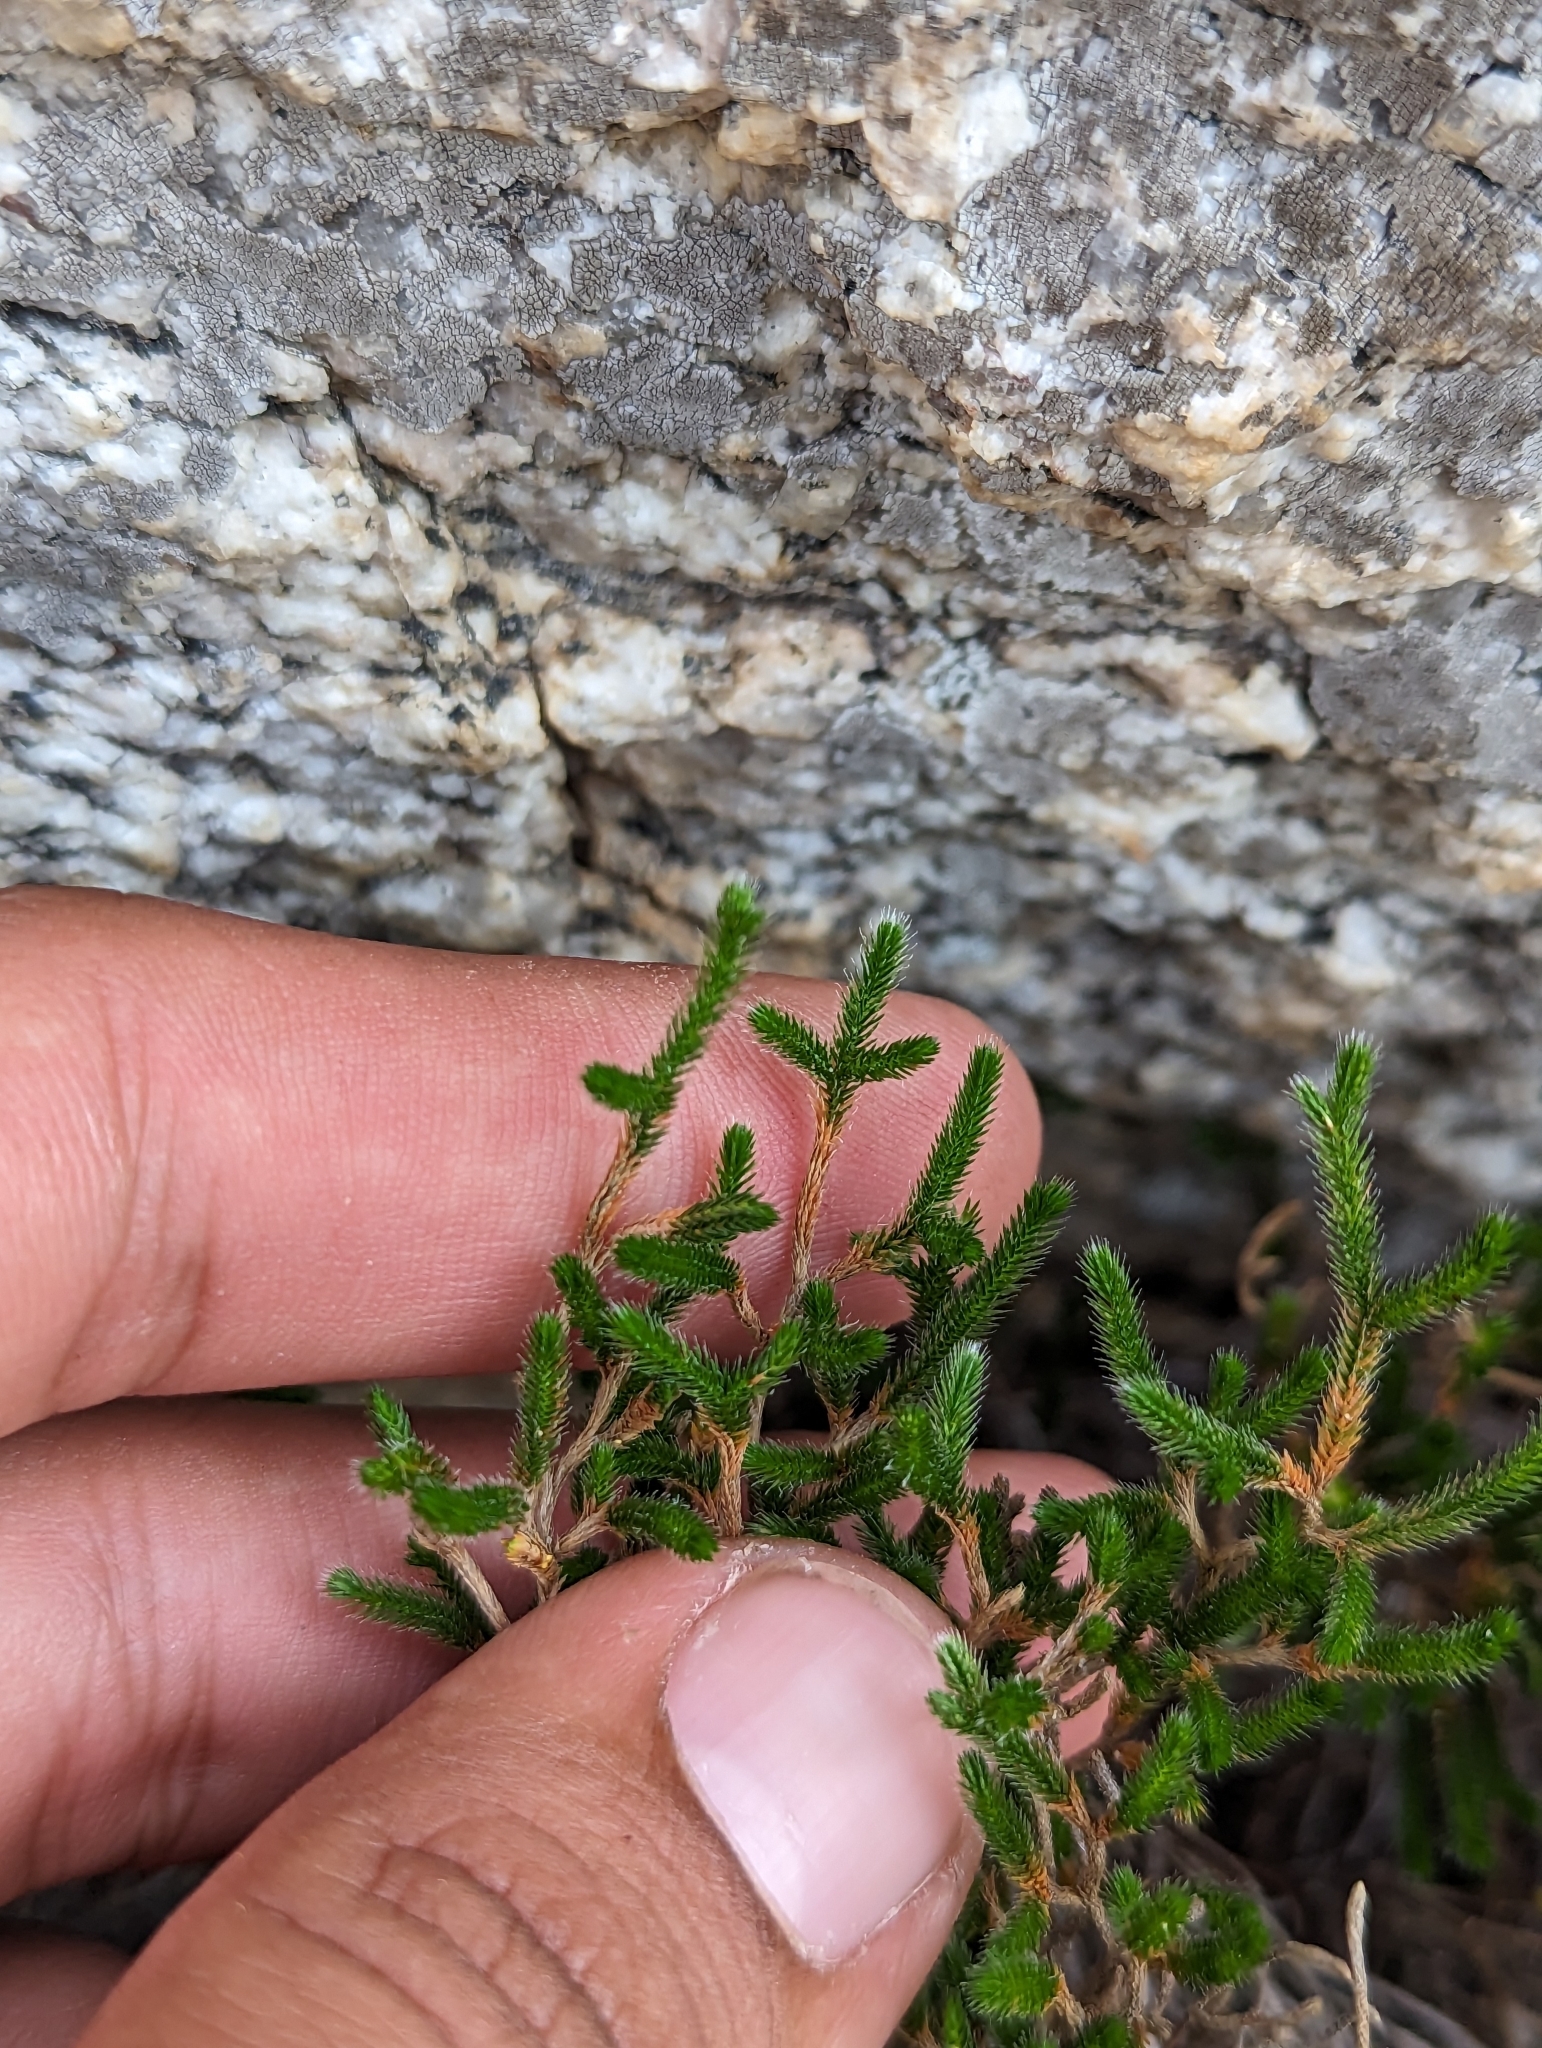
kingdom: Plantae
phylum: Tracheophyta
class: Lycopodiopsida
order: Selaginellales
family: Selaginellaceae
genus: Selaginella
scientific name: Selaginella bigelovii
